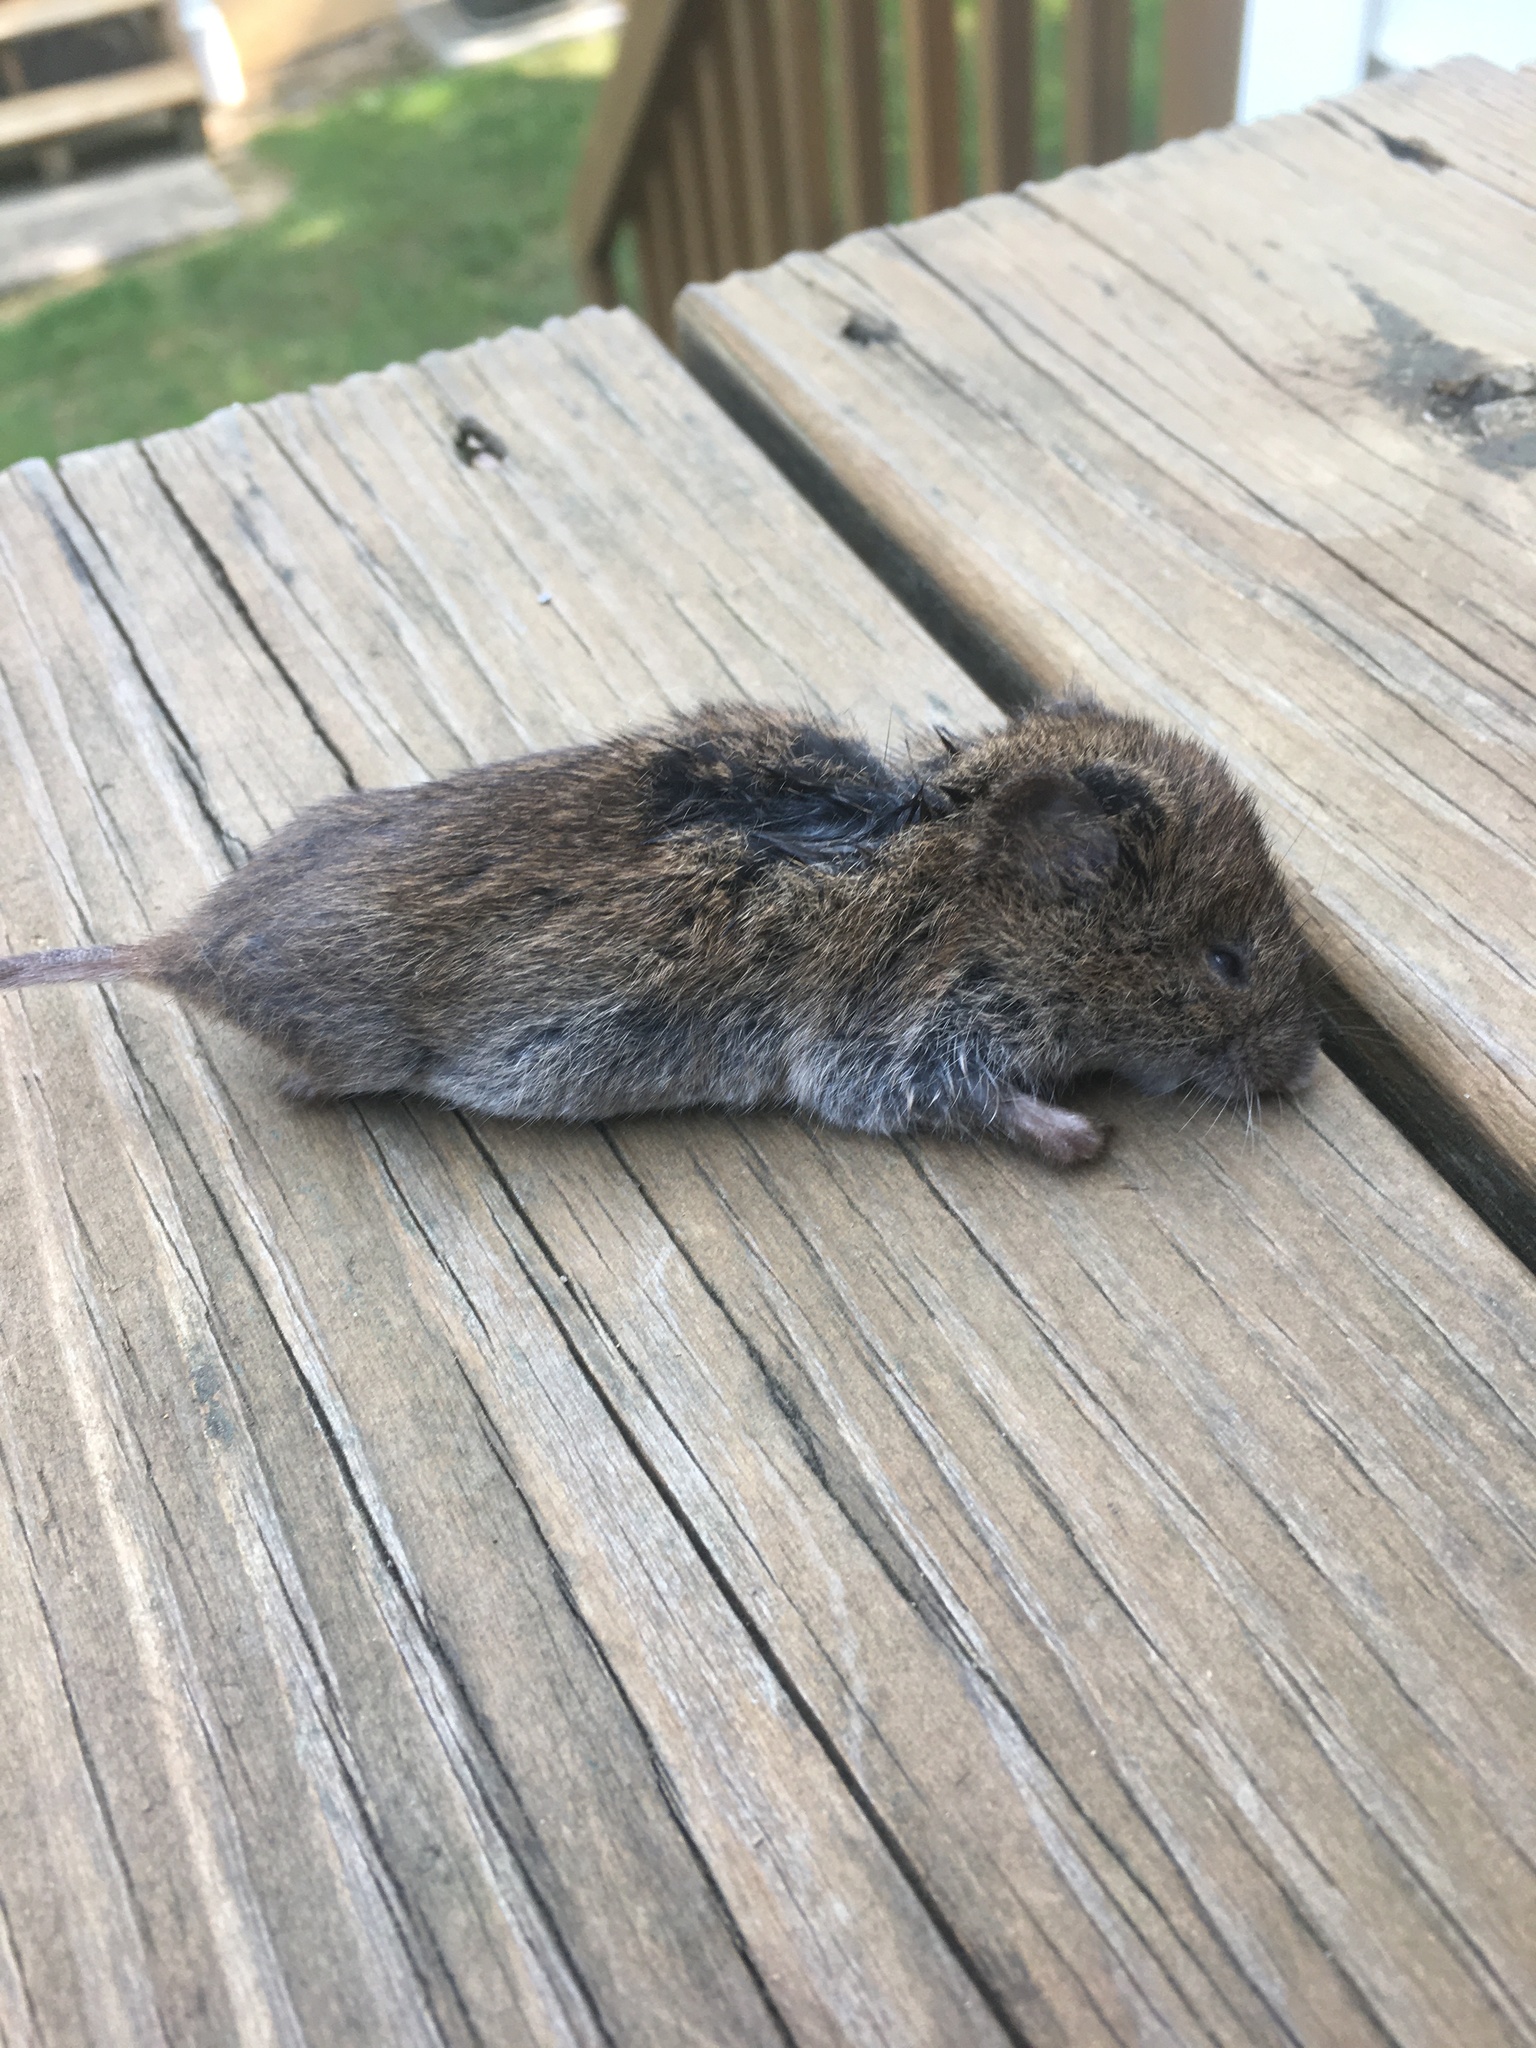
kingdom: Animalia
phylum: Chordata
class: Mammalia
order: Rodentia
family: Cricetidae
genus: Microtus
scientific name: Microtus pennsylvanicus
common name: Meadow vole
